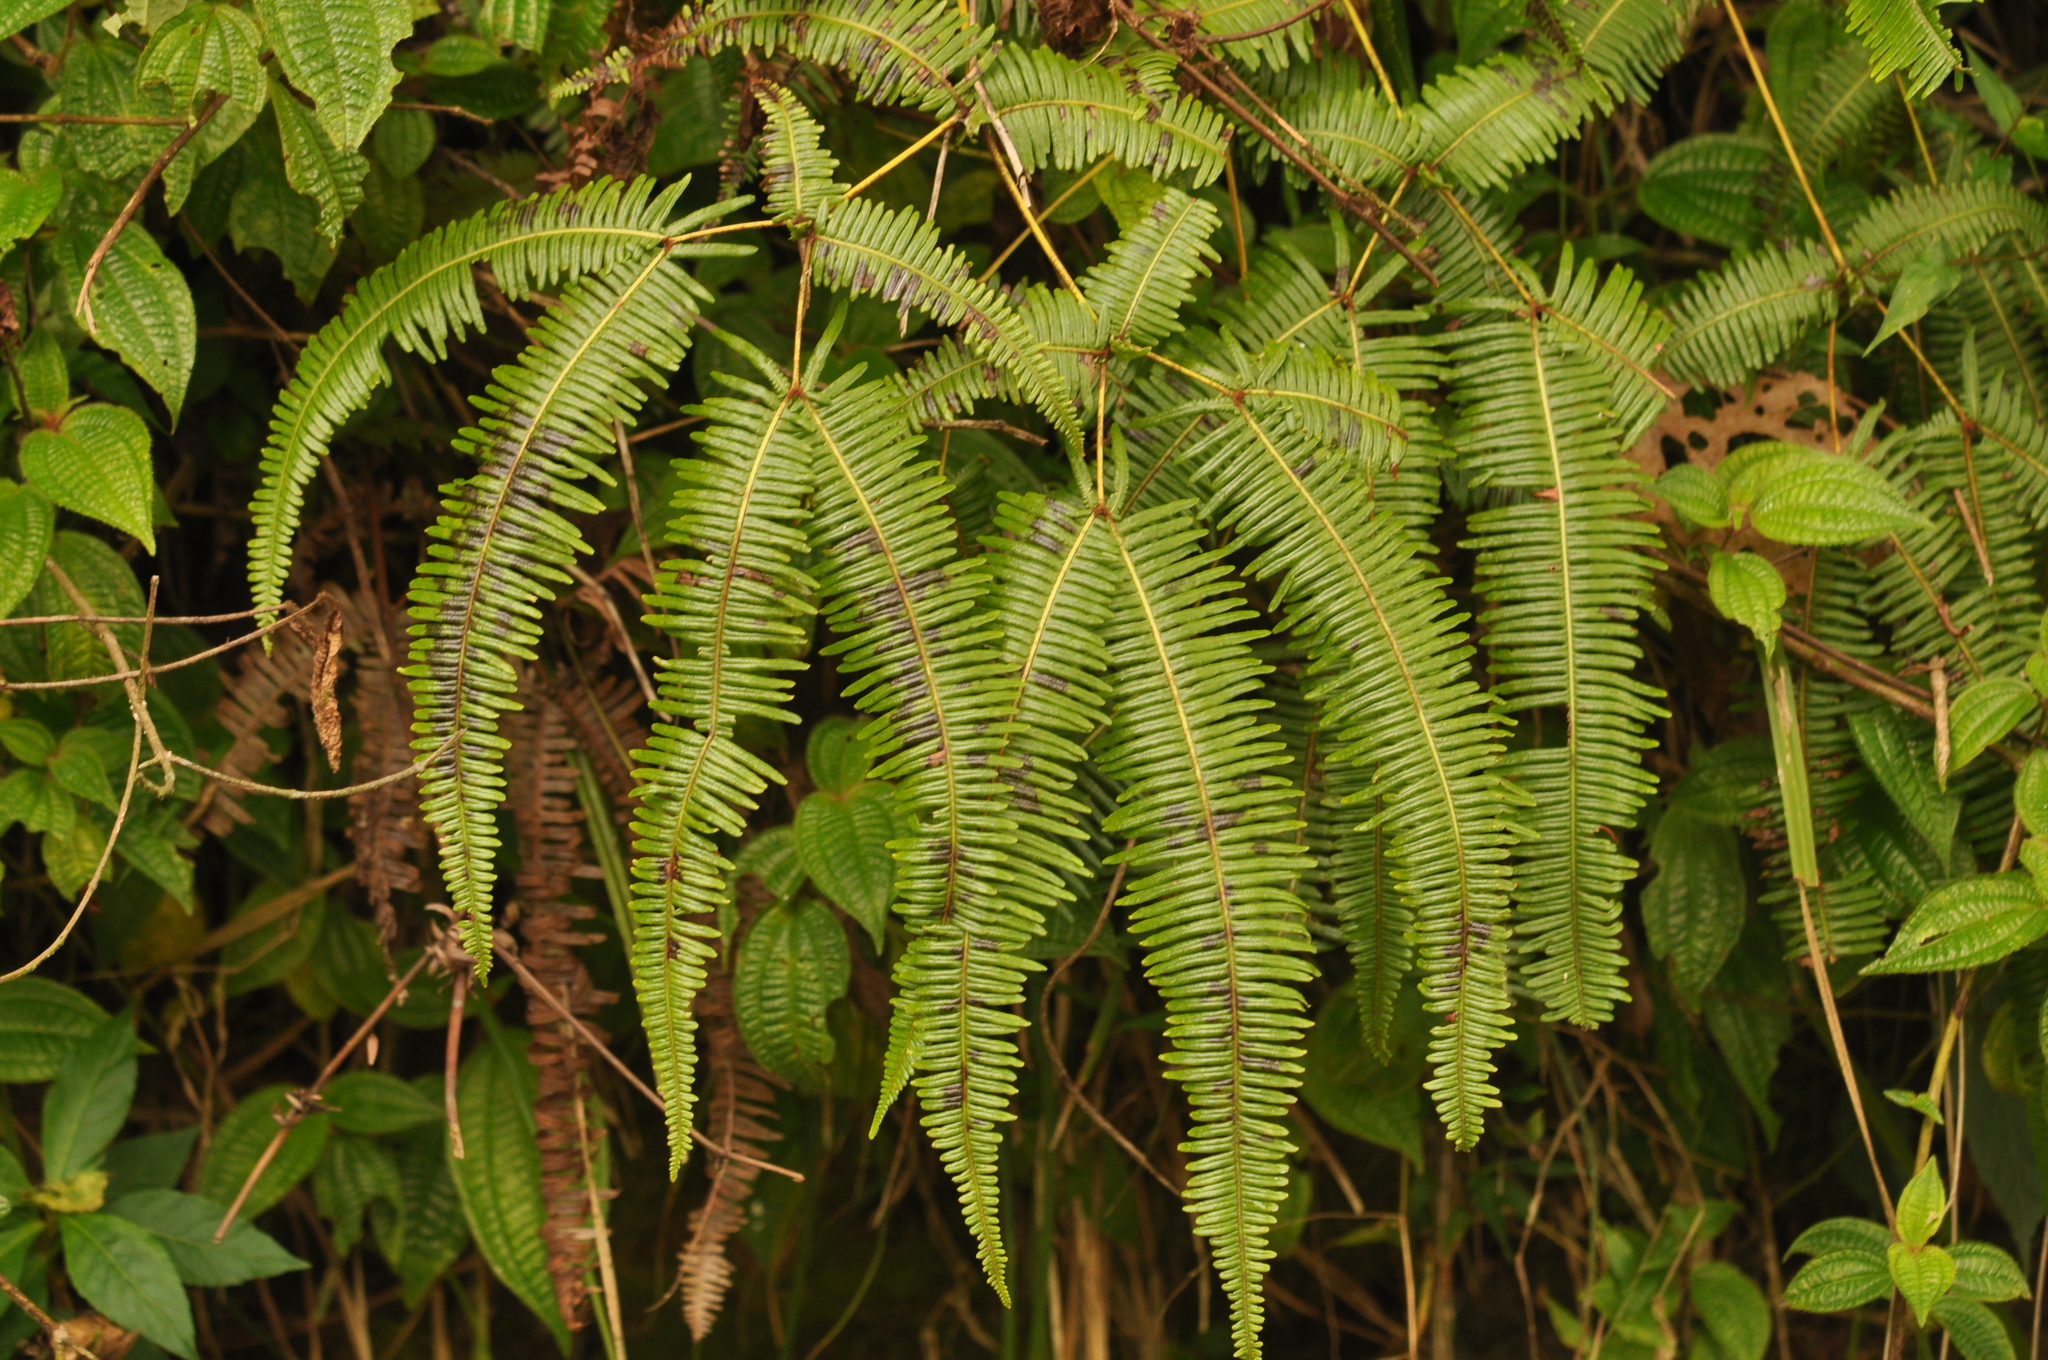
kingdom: Plantae
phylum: Tracheophyta
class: Polypodiopsida
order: Gleicheniales
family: Gleicheniaceae
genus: Dicranopteris
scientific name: Dicranopteris linearis
